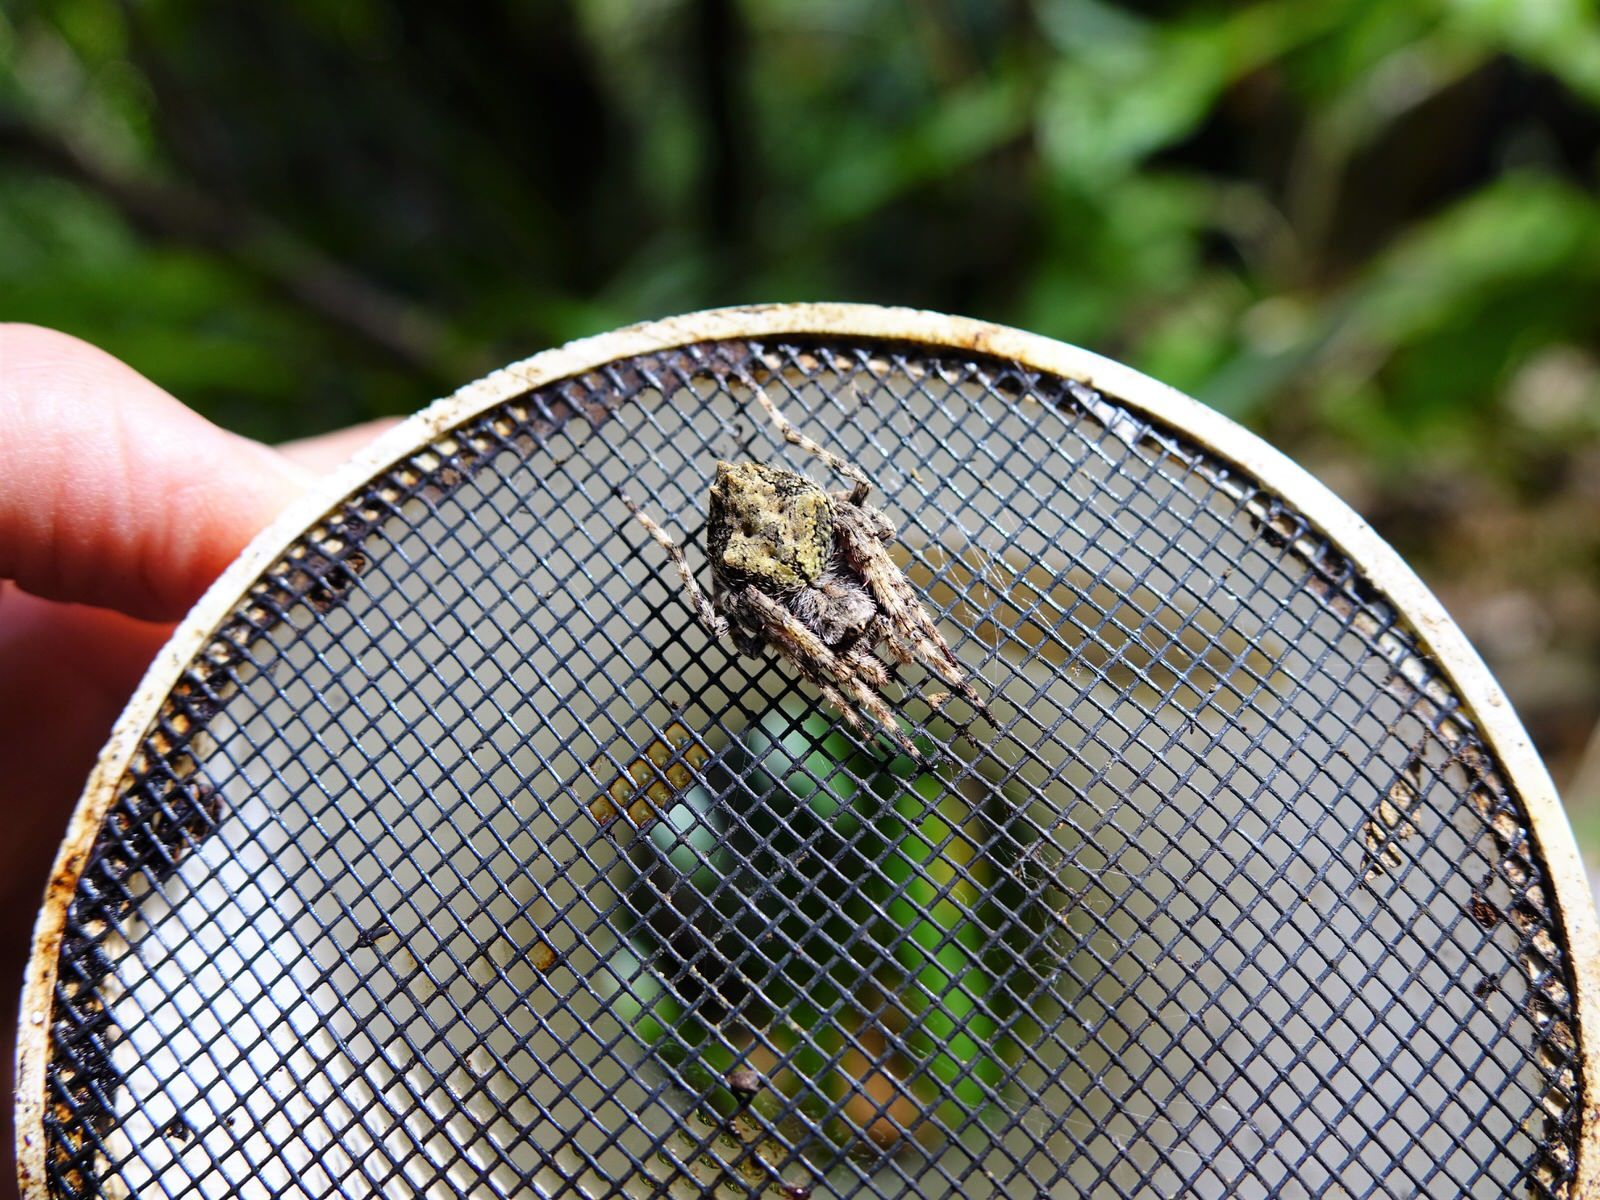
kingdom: Animalia
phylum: Arthropoda
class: Arachnida
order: Araneae
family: Araneidae
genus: Eriophora
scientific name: Eriophora pustulosa
